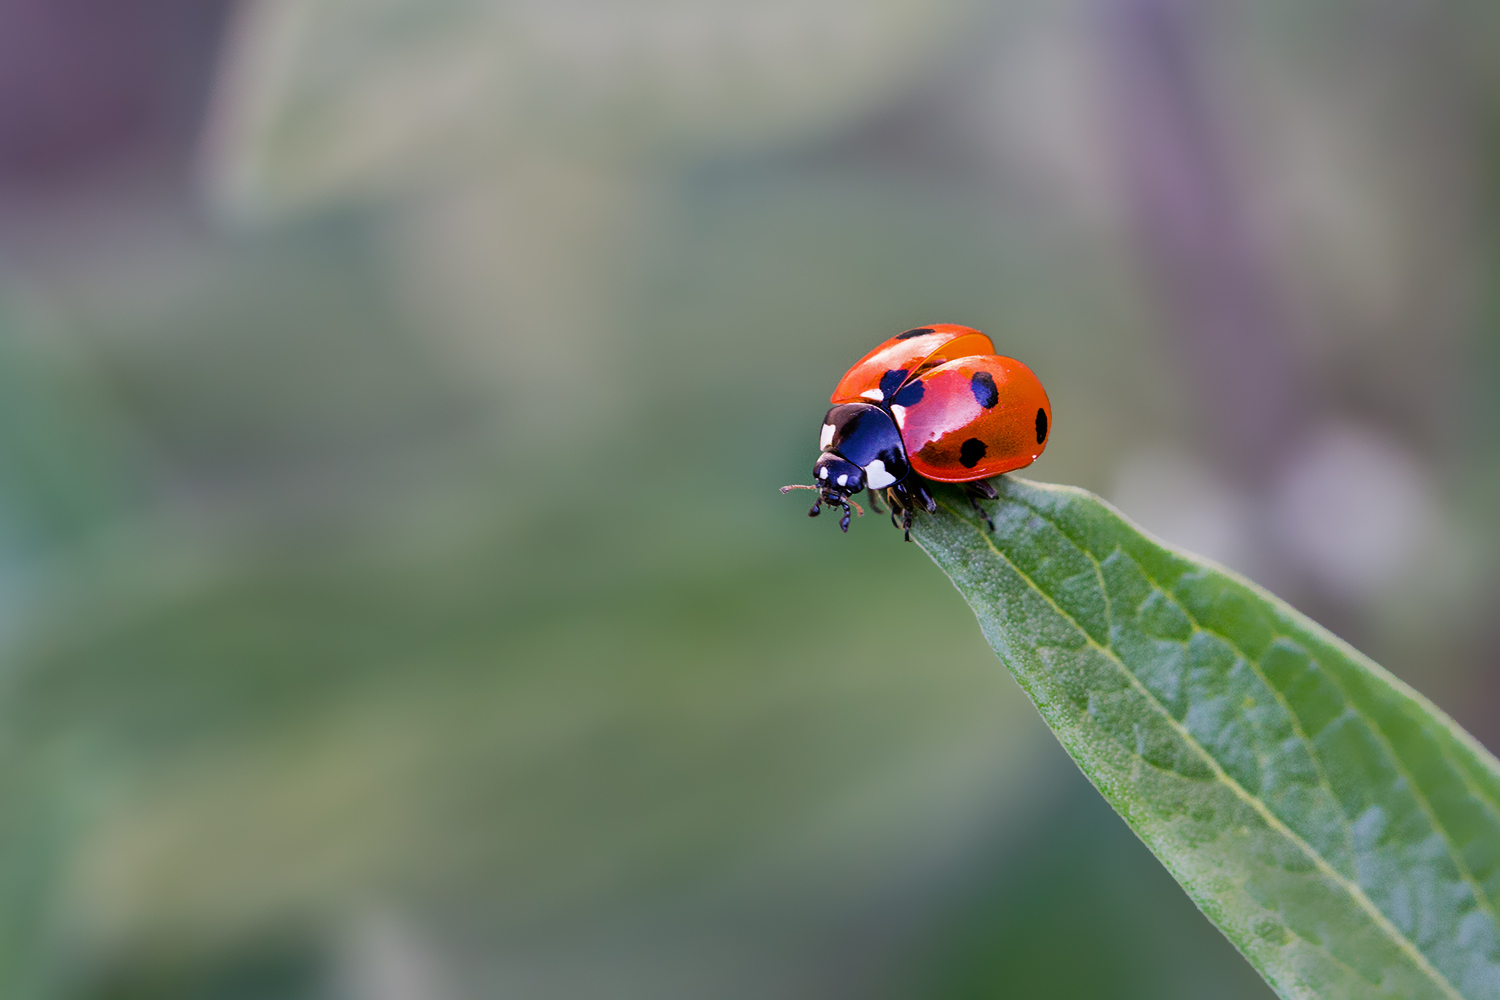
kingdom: Animalia
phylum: Arthropoda
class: Insecta
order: Coleoptera
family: Coccinellidae
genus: Coccinella
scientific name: Coccinella septempunctata
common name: Sevenspotted lady beetle
